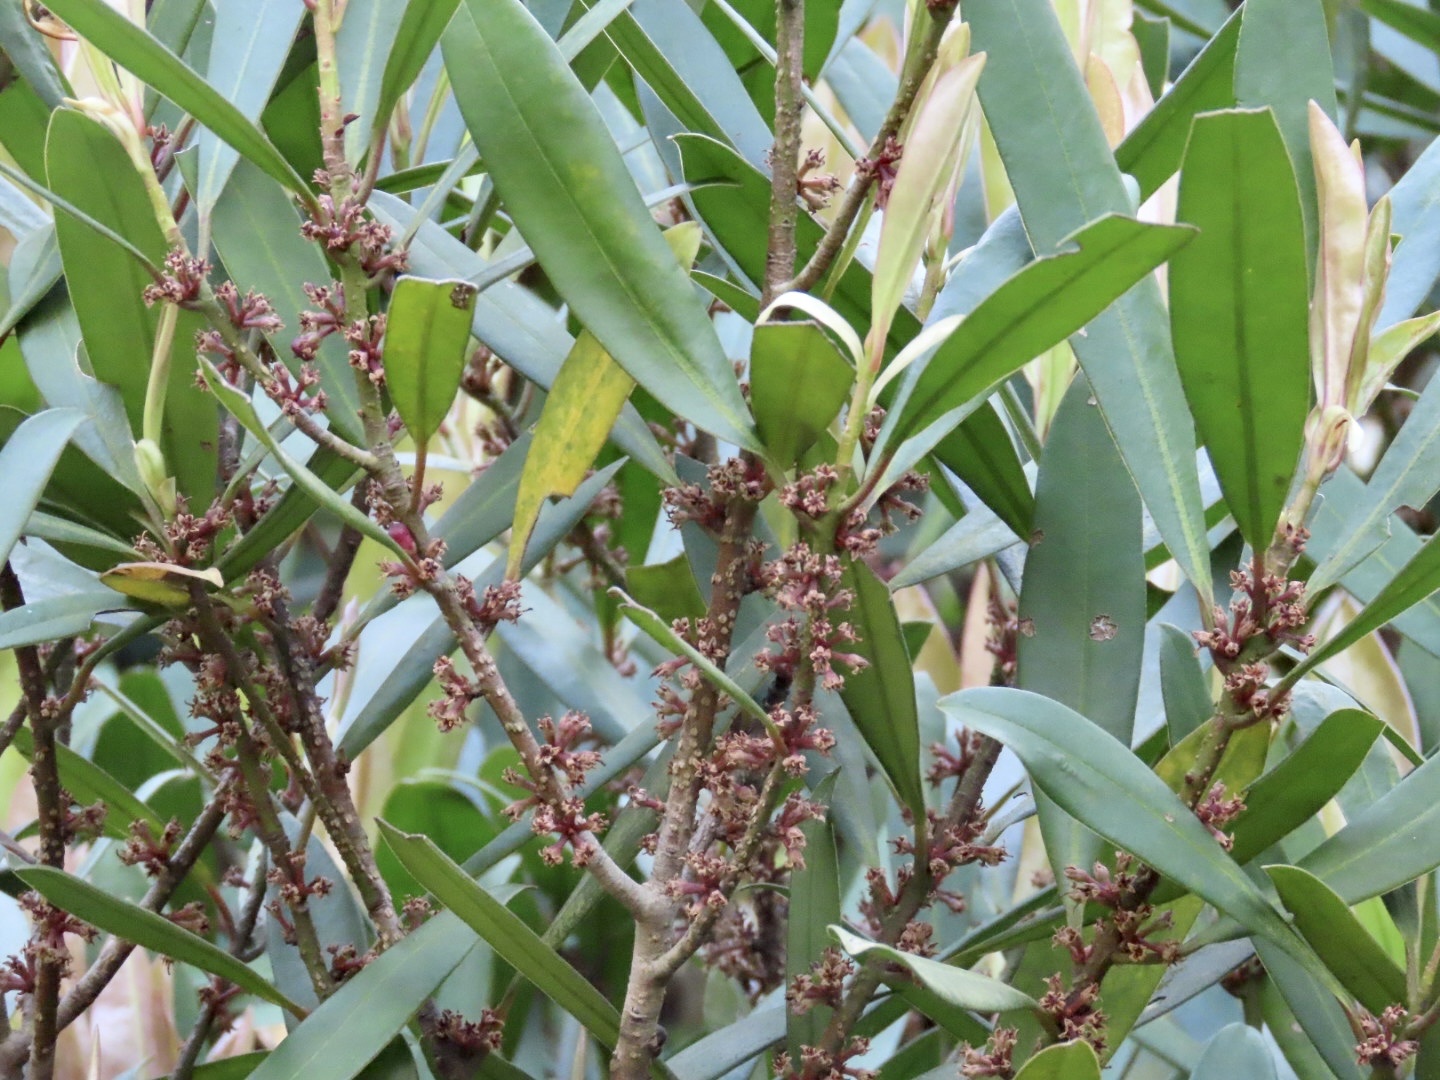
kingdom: Plantae
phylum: Tracheophyta
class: Magnoliopsida
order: Ericales
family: Primulaceae
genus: Myrsine
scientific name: Myrsine seguinii
